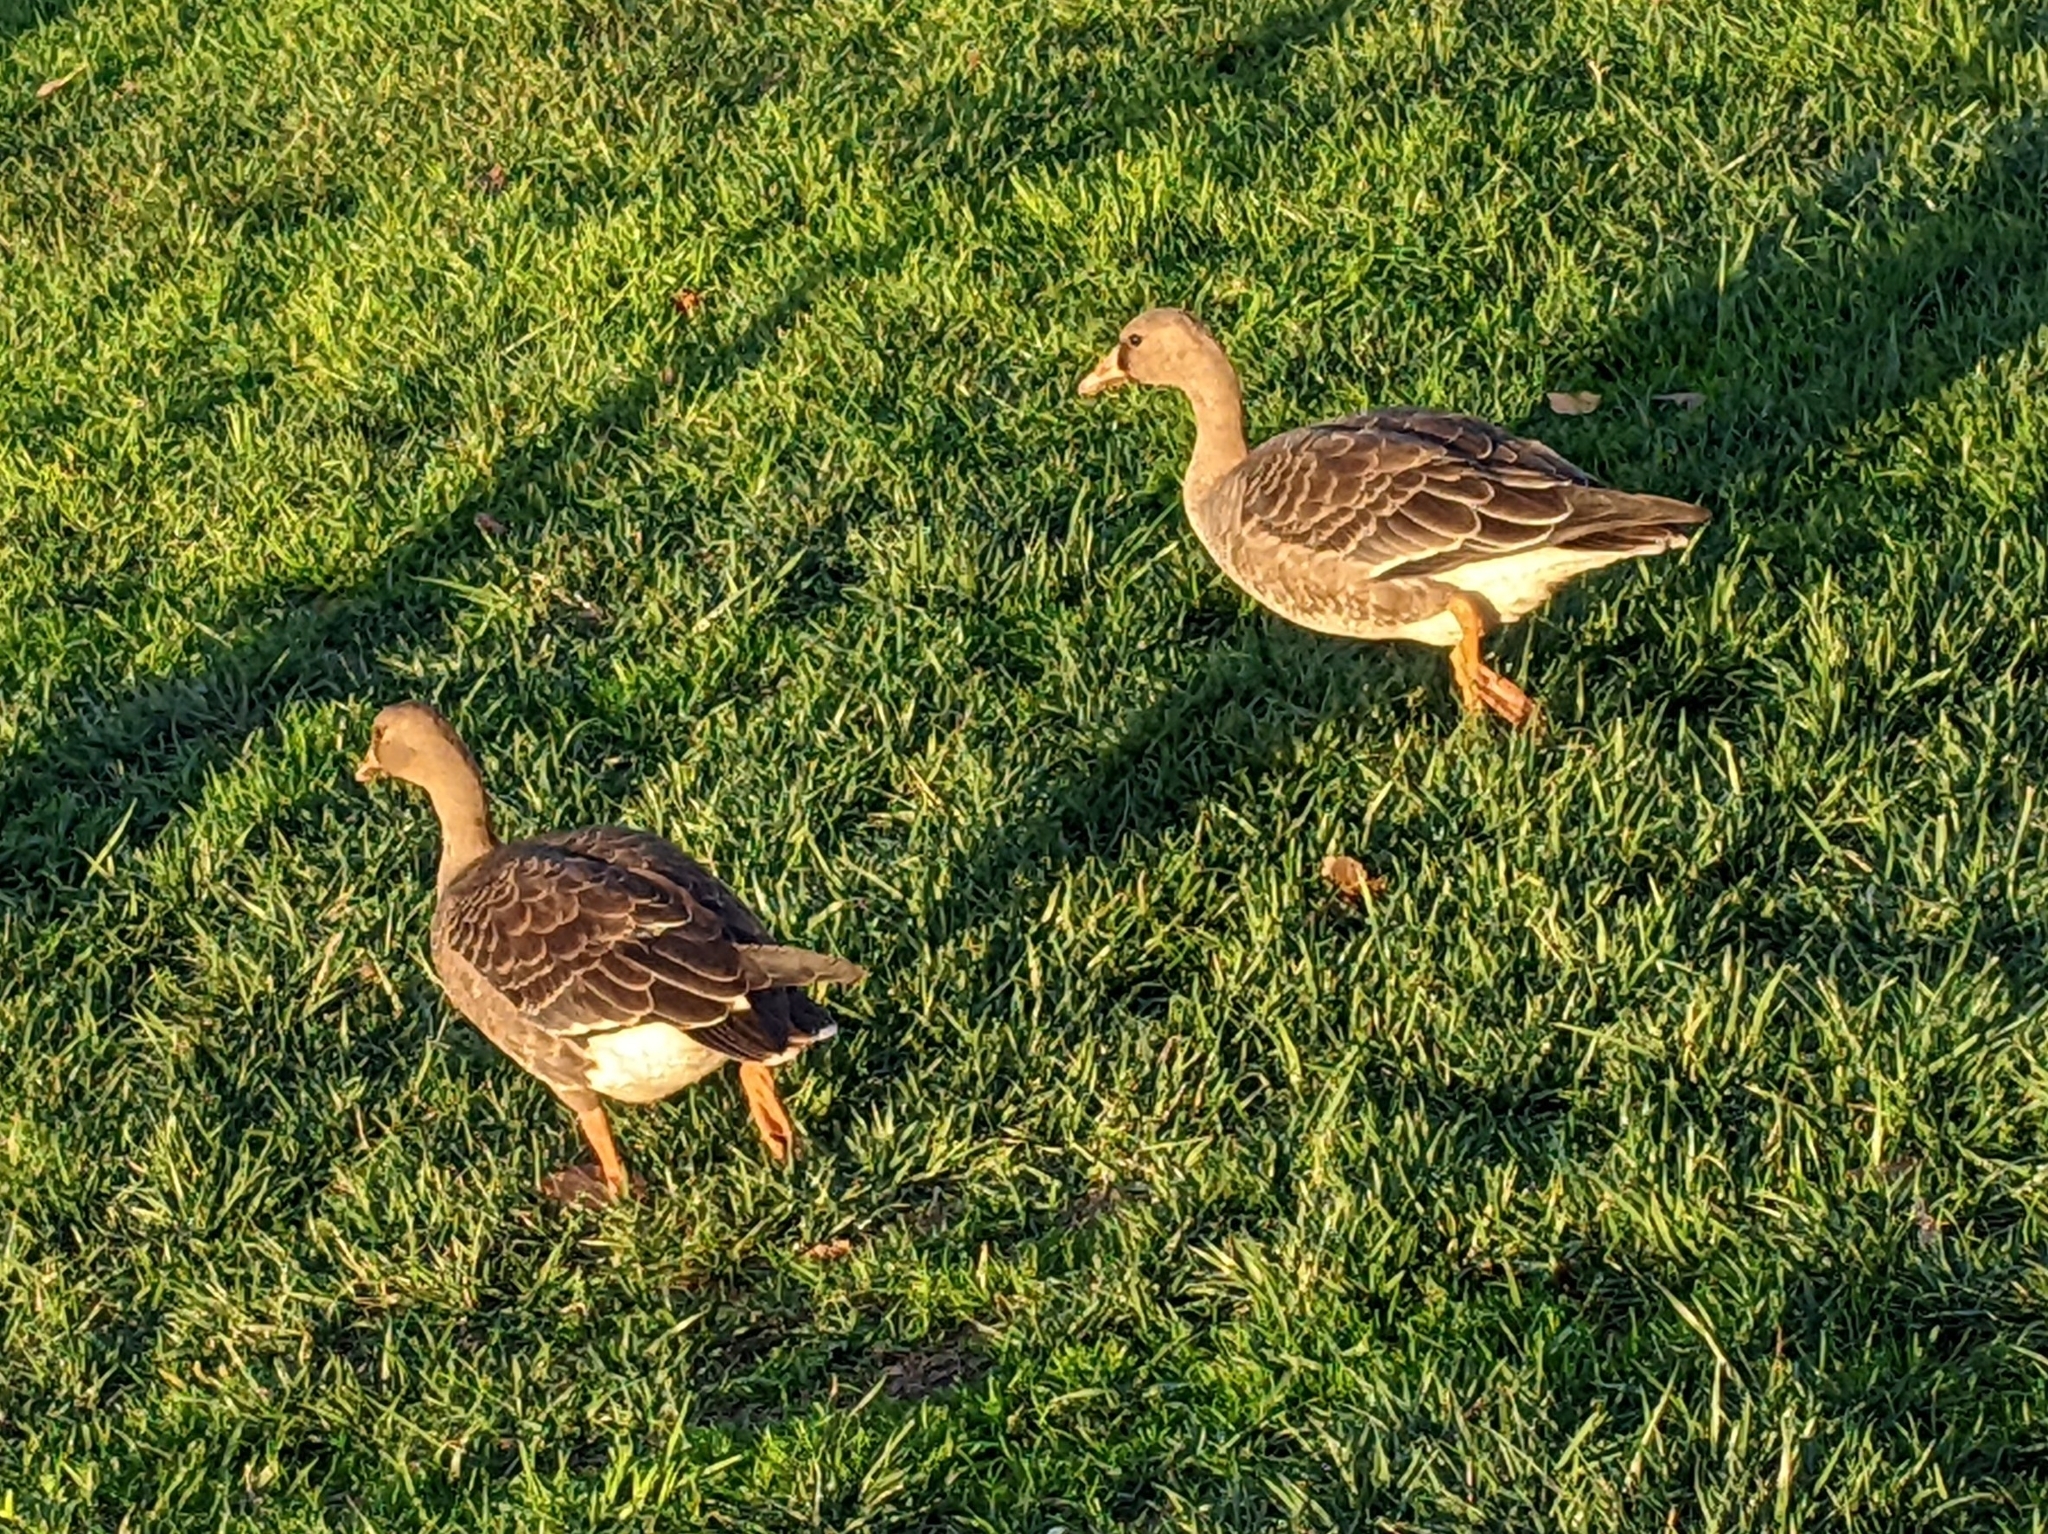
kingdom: Animalia
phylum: Chordata
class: Aves
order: Anseriformes
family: Anatidae
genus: Anser
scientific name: Anser albifrons
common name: Greater white-fronted goose
